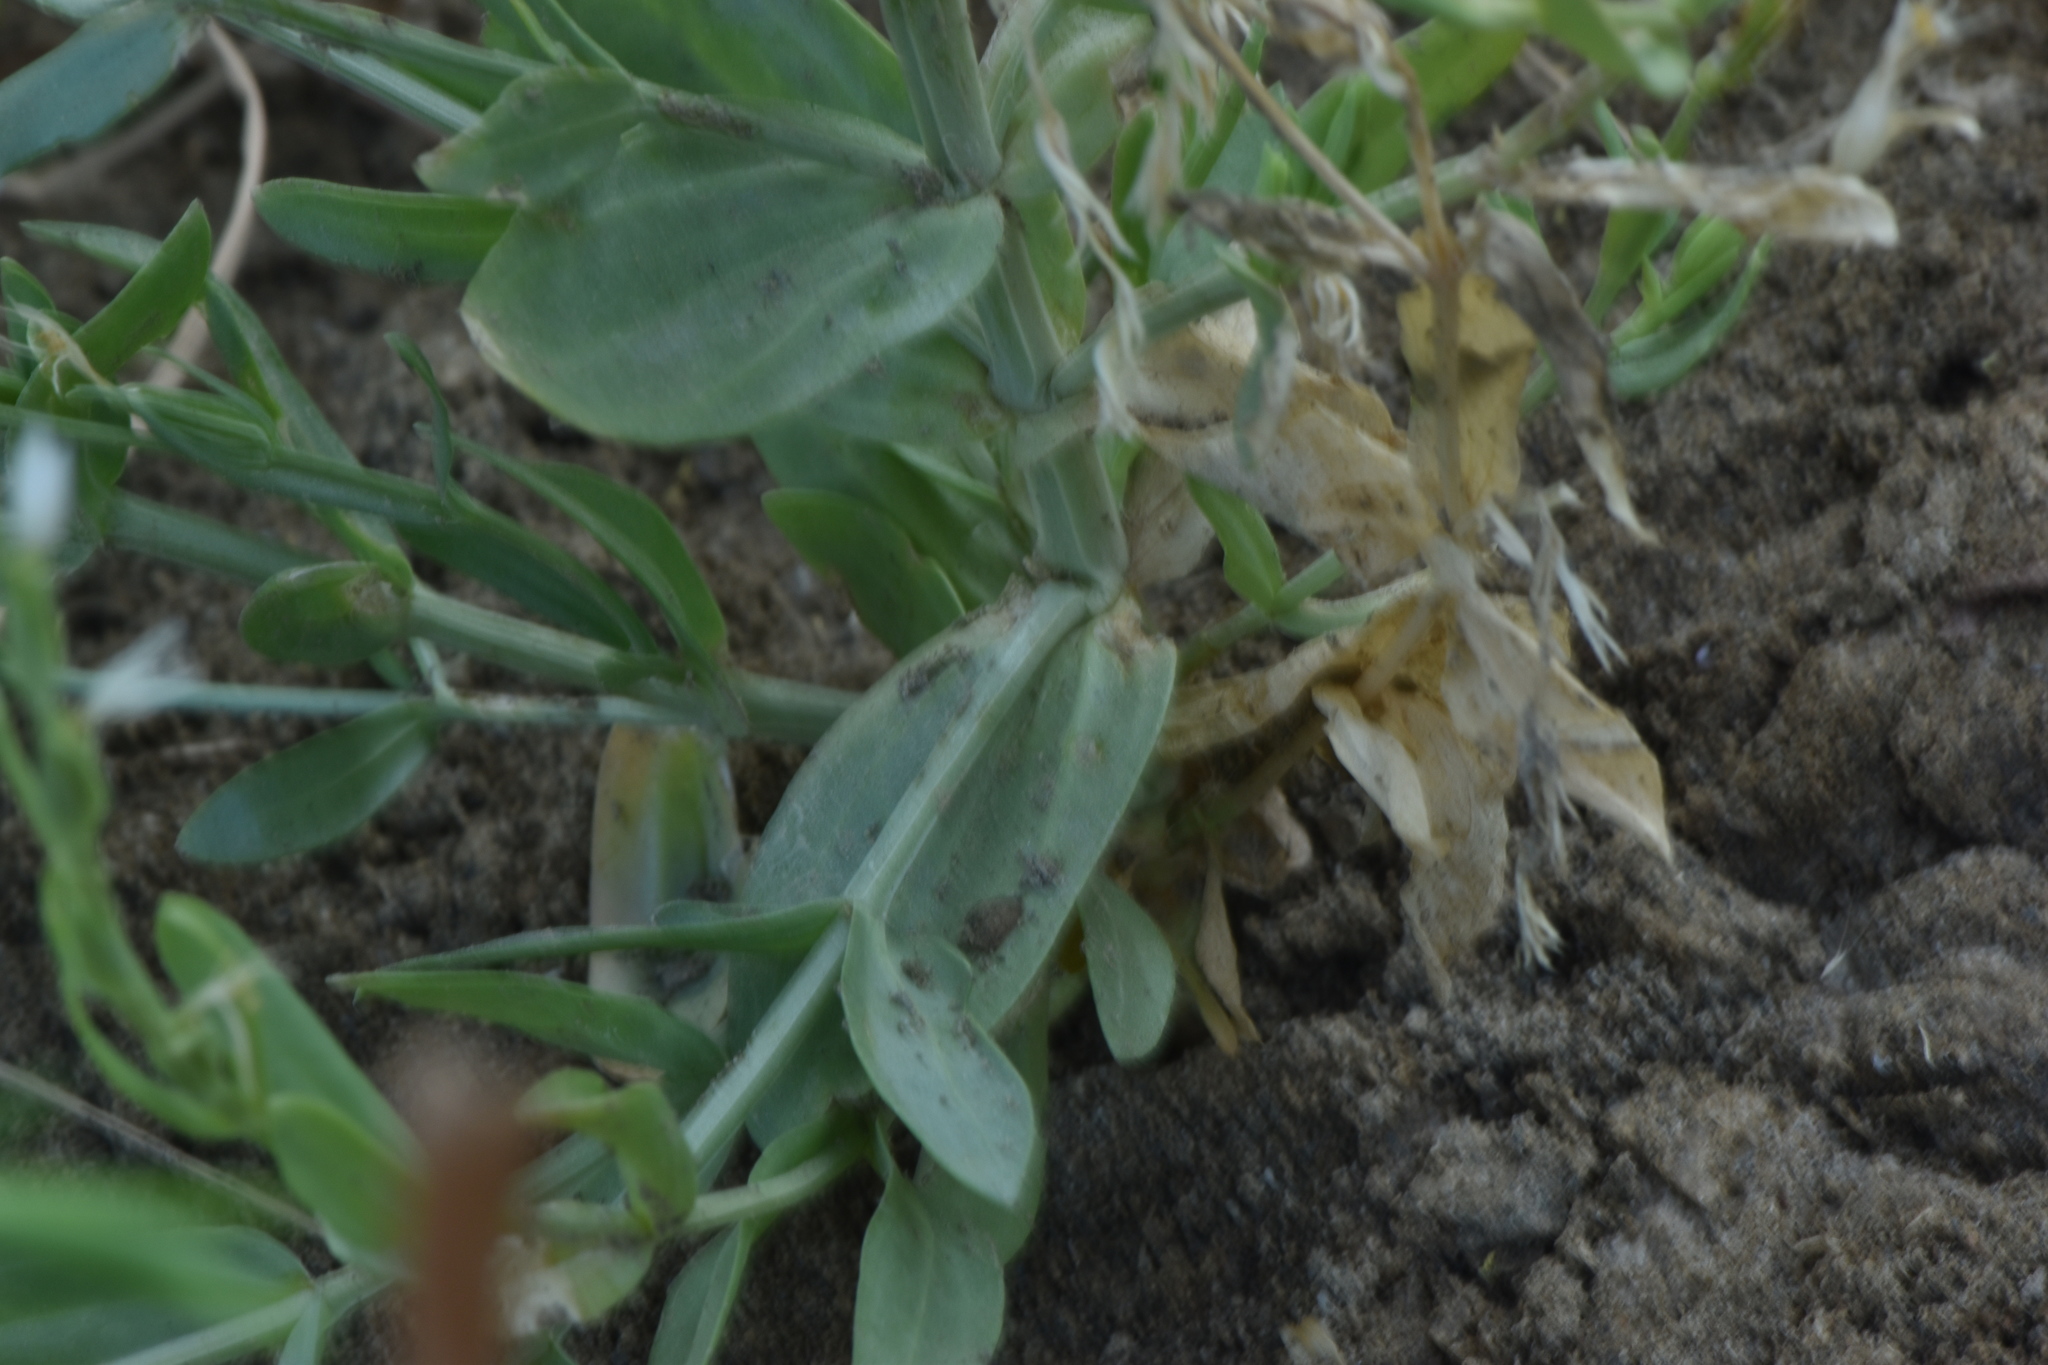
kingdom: Plantae
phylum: Tracheophyta
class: Magnoliopsida
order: Gentianales
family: Gentianaceae
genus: Schenkia
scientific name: Schenkia spicata
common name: Spiked centaury
